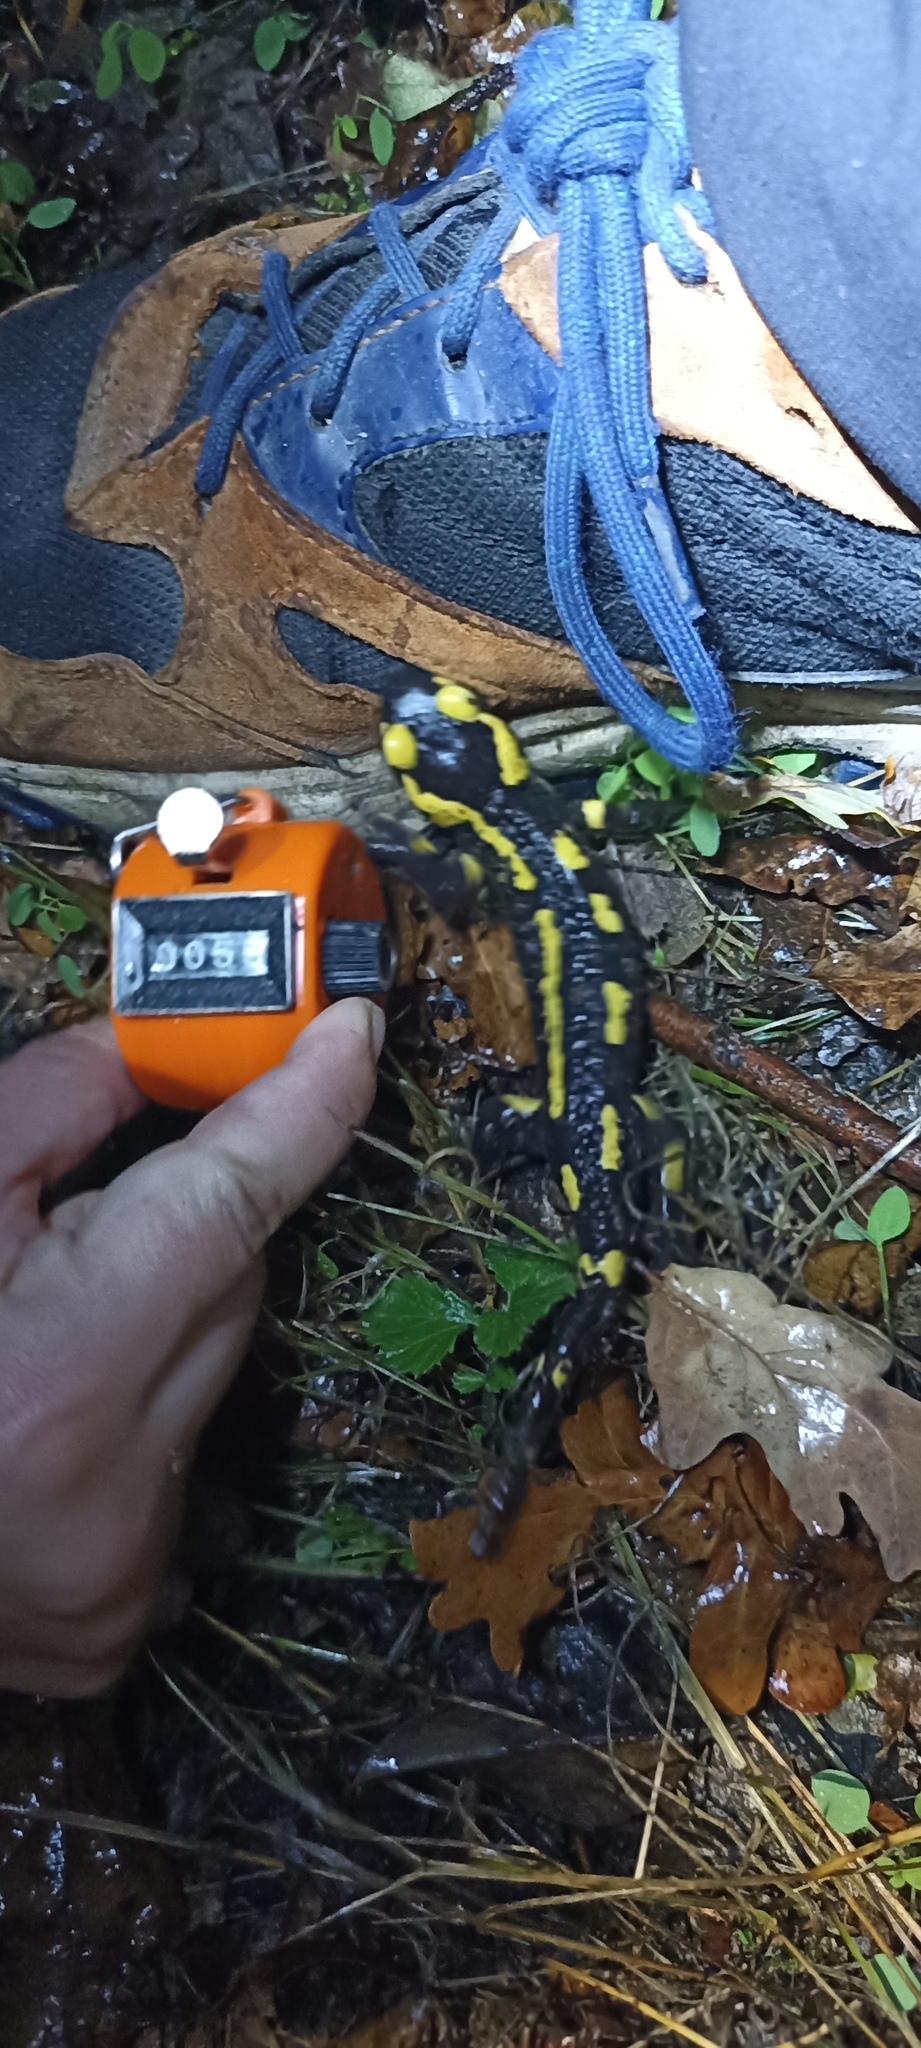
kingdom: Animalia
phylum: Chordata
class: Amphibia
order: Caudata
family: Salamandridae
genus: Salamandra
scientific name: Salamandra salamandra
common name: Fire salamander
